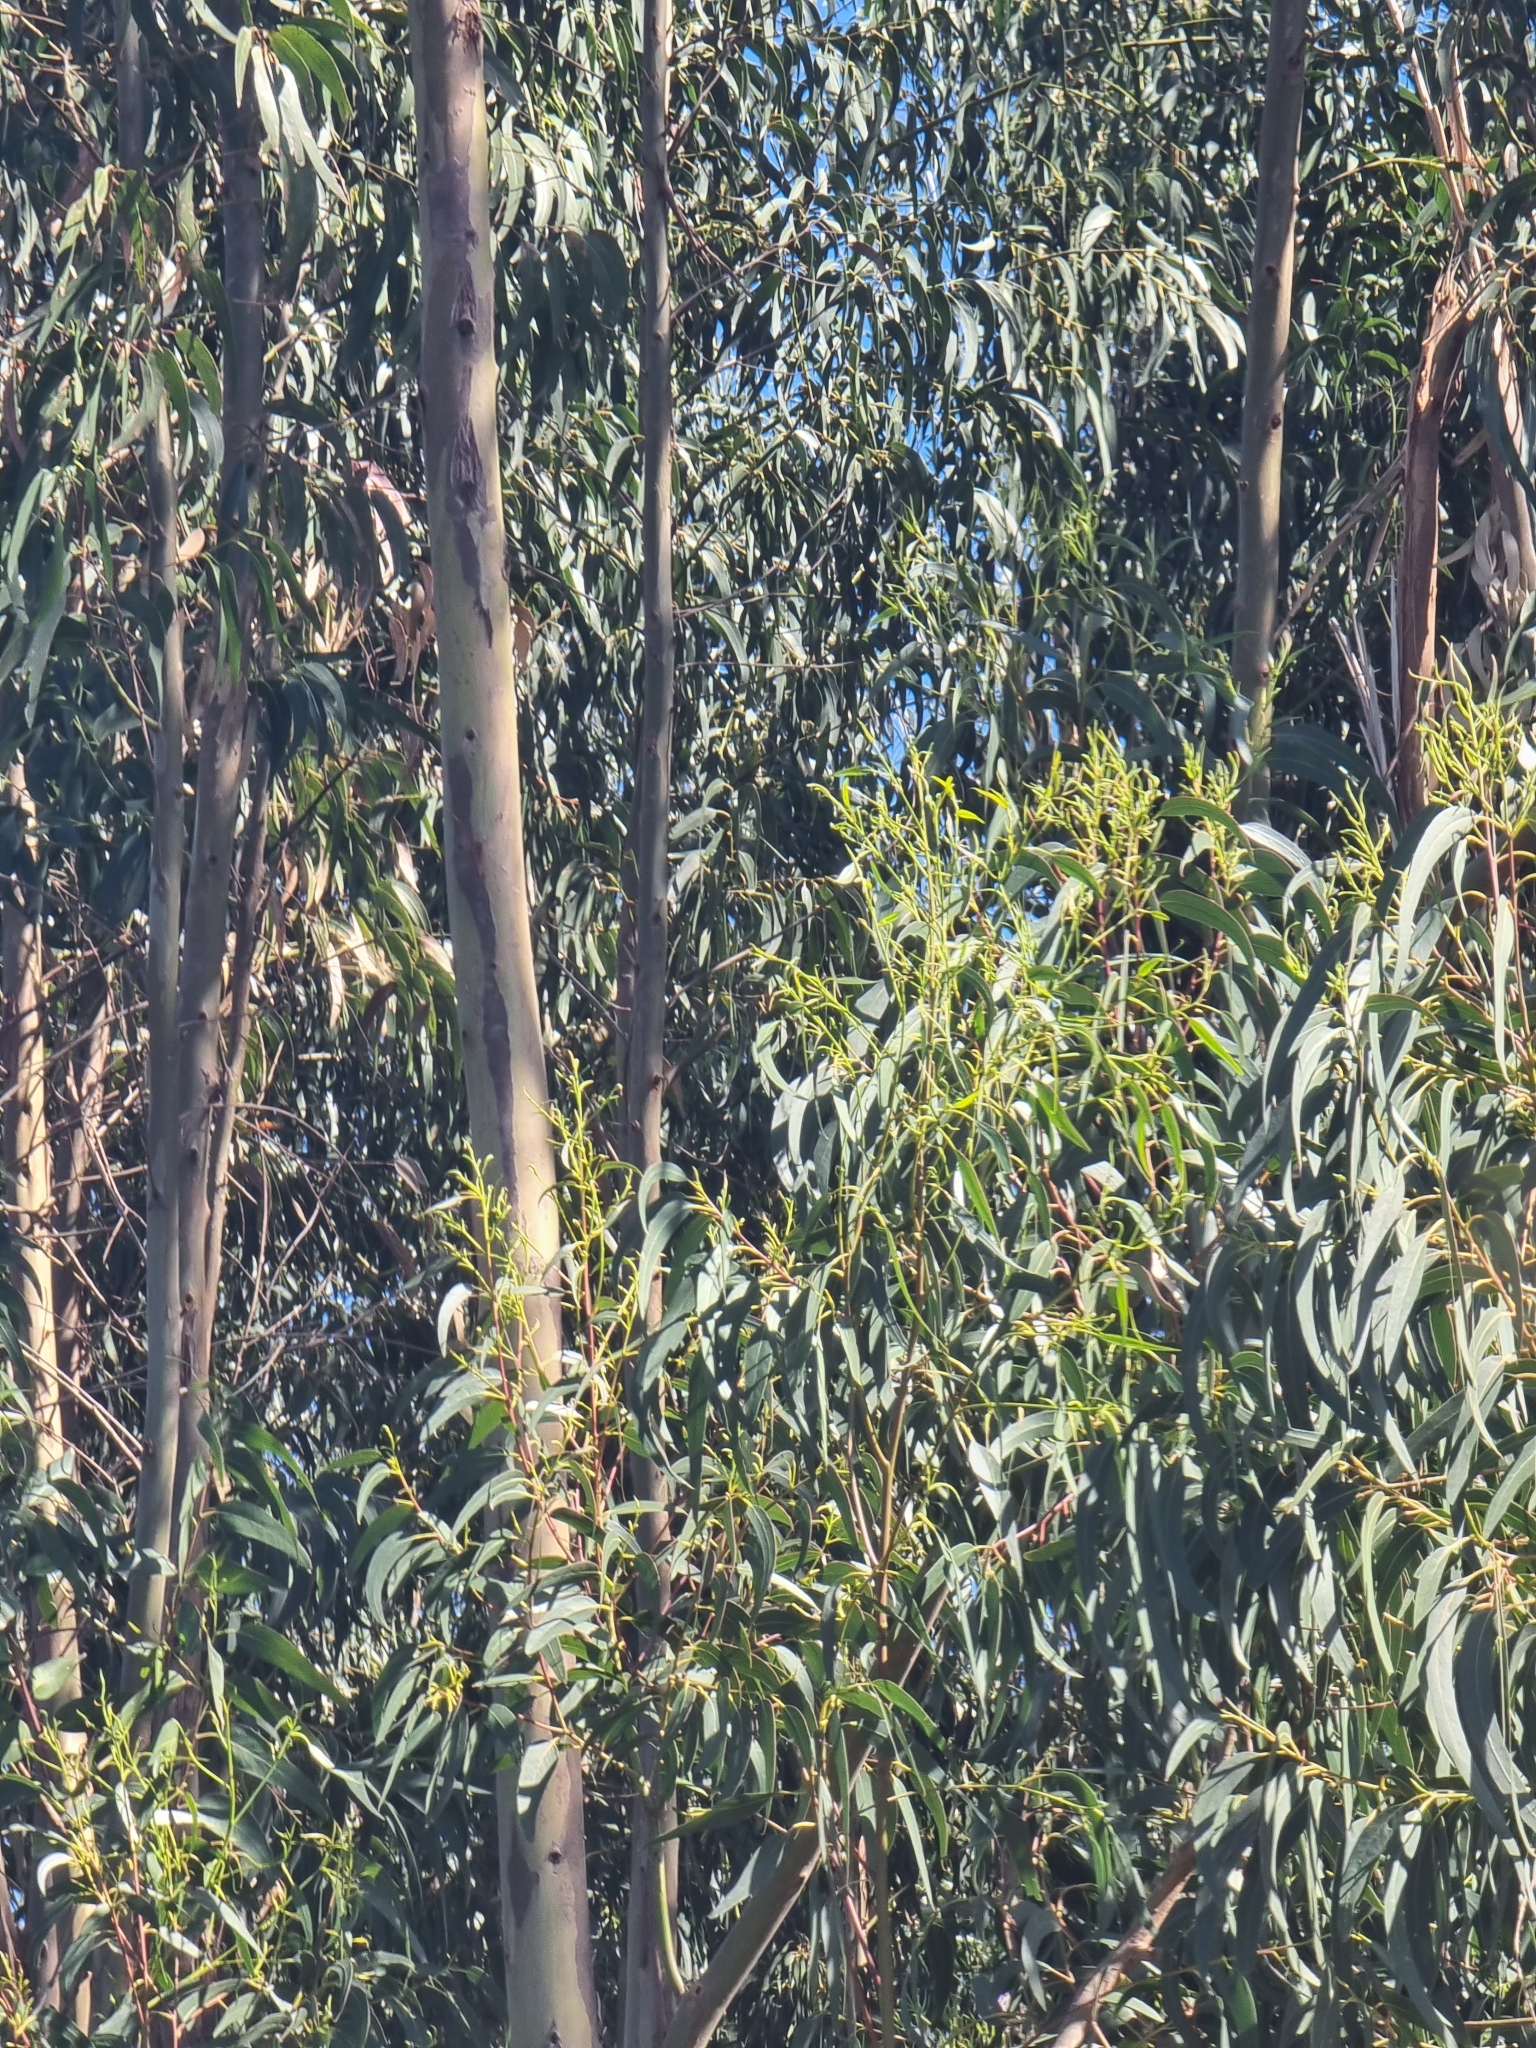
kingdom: Plantae
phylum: Tracheophyta
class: Magnoliopsida
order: Myrtales
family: Myrtaceae
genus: Eucalyptus
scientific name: Eucalyptus globulus
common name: Southern blue-gum
